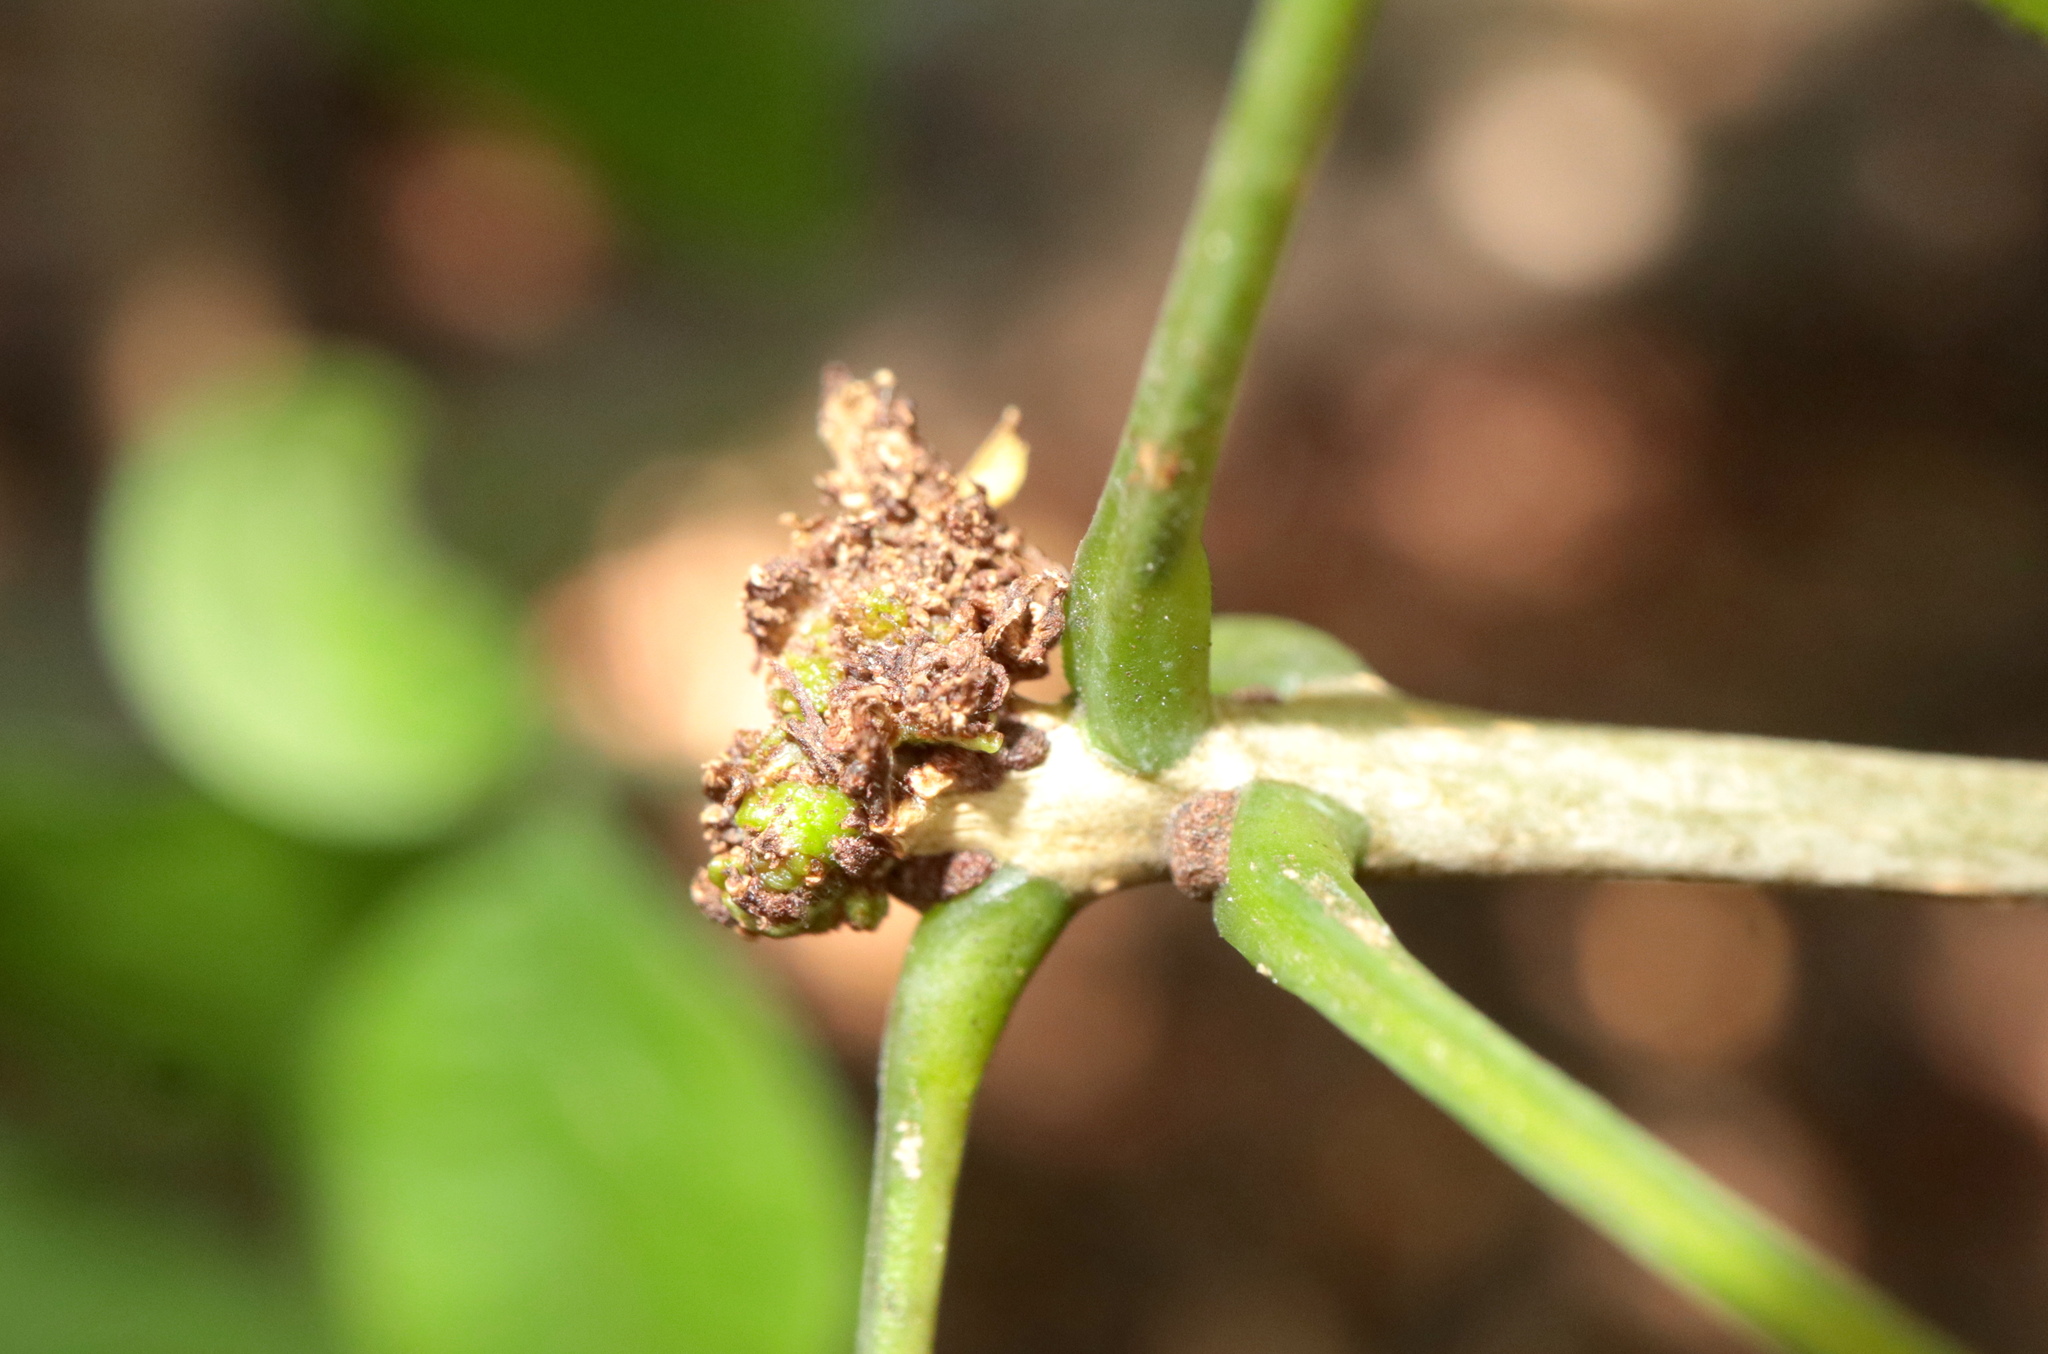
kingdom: Animalia
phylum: Arthropoda
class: Arachnida
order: Trombidiformes
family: Eriophyidae
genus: Aceria
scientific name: Aceria fraxiniflora
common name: Ash flower gall mite
